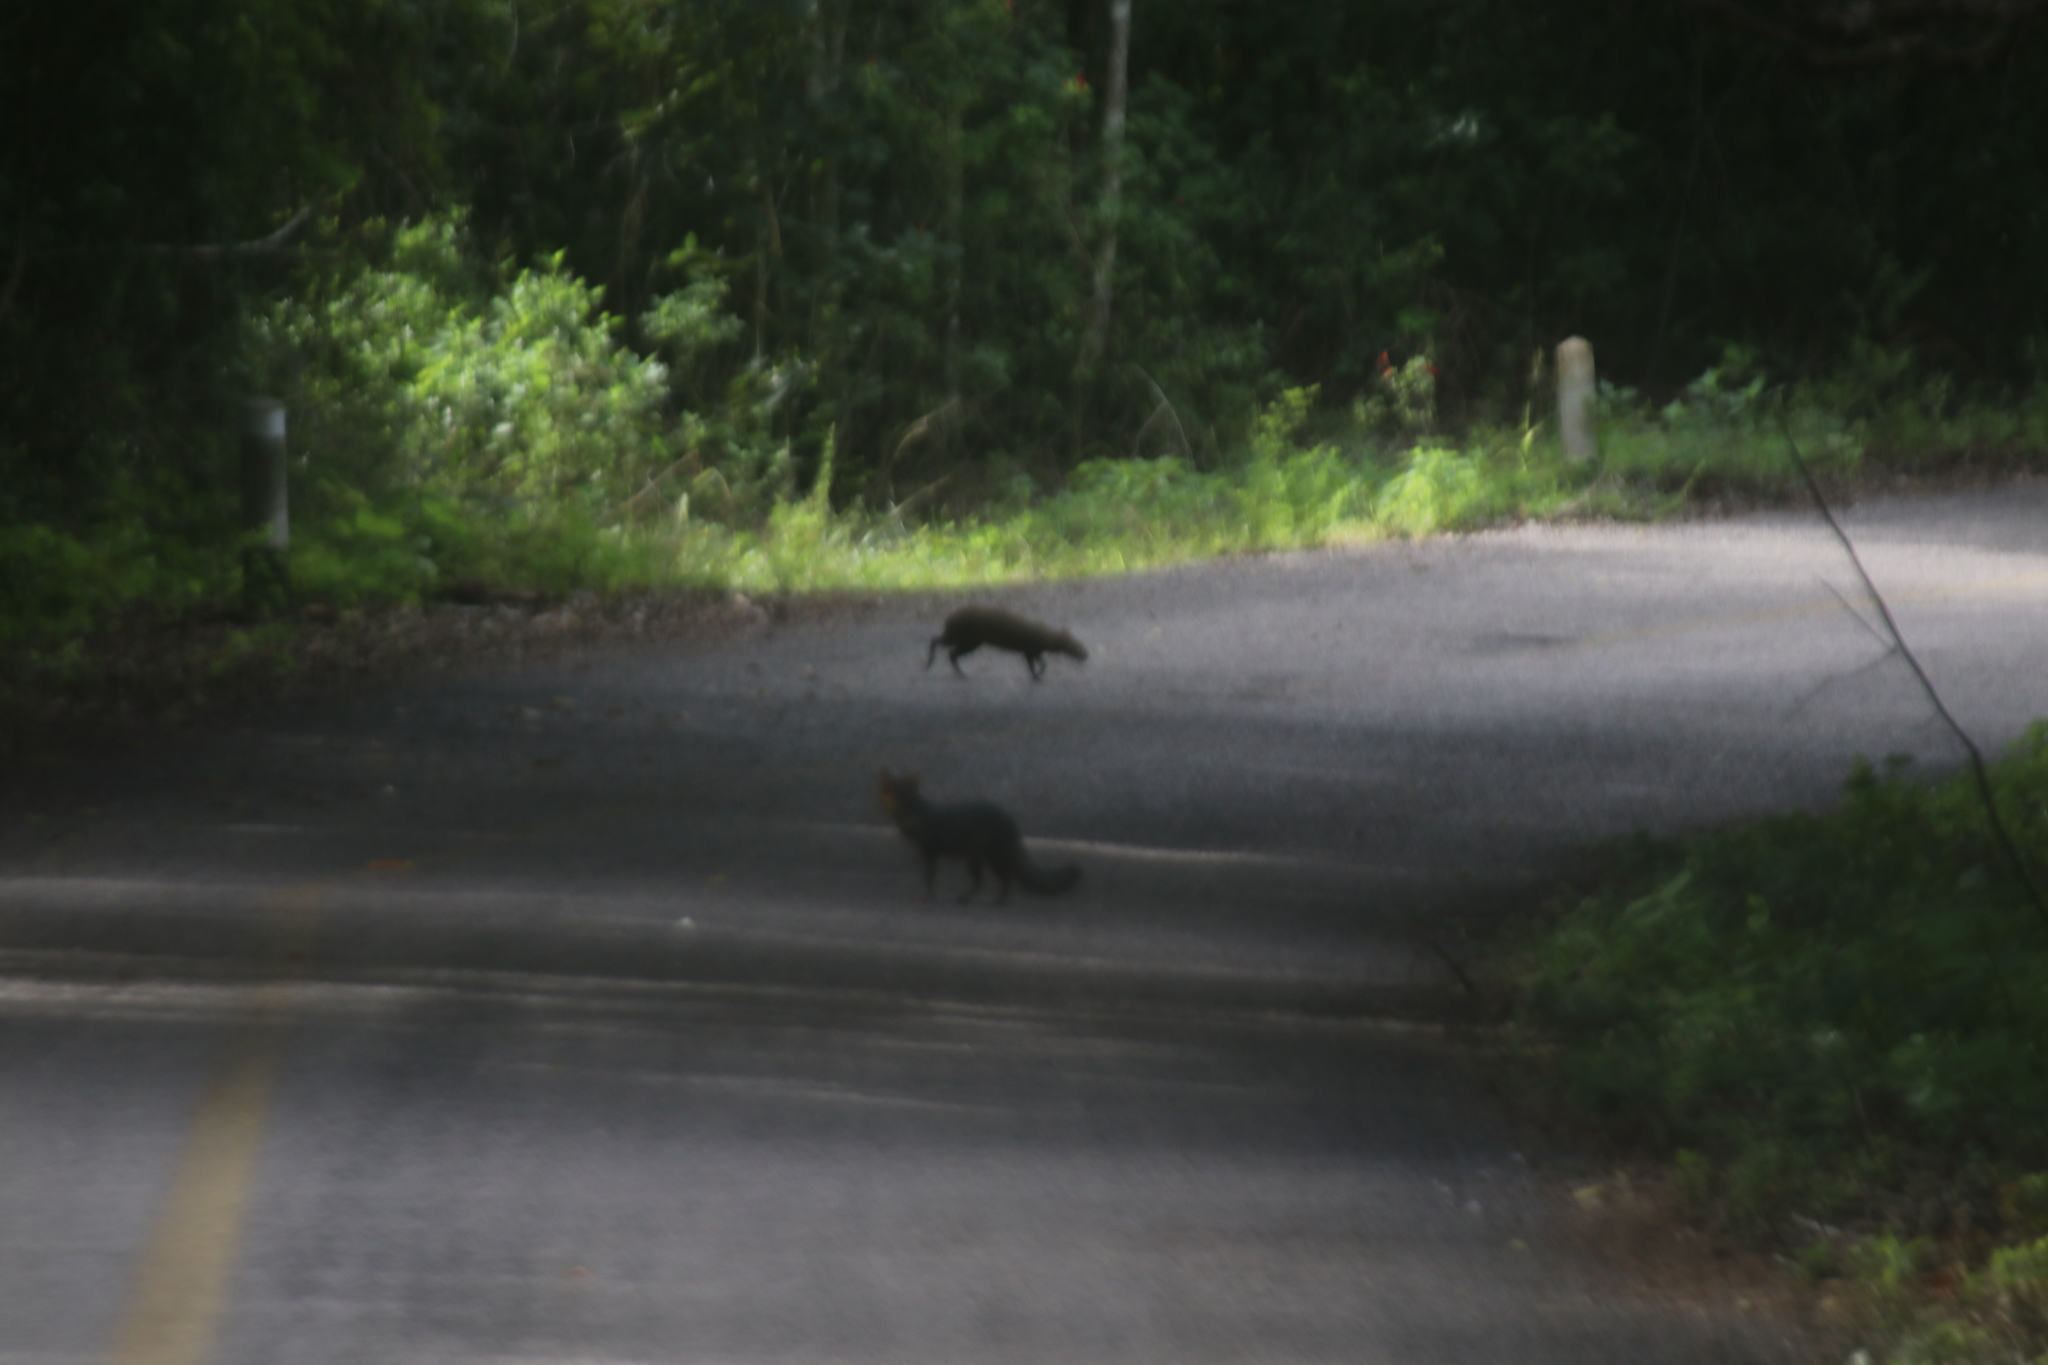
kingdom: Animalia
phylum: Chordata
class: Mammalia
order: Rodentia
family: Dasyproctidae
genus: Dasyprocta
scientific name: Dasyprocta punctata
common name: Central american agouti
